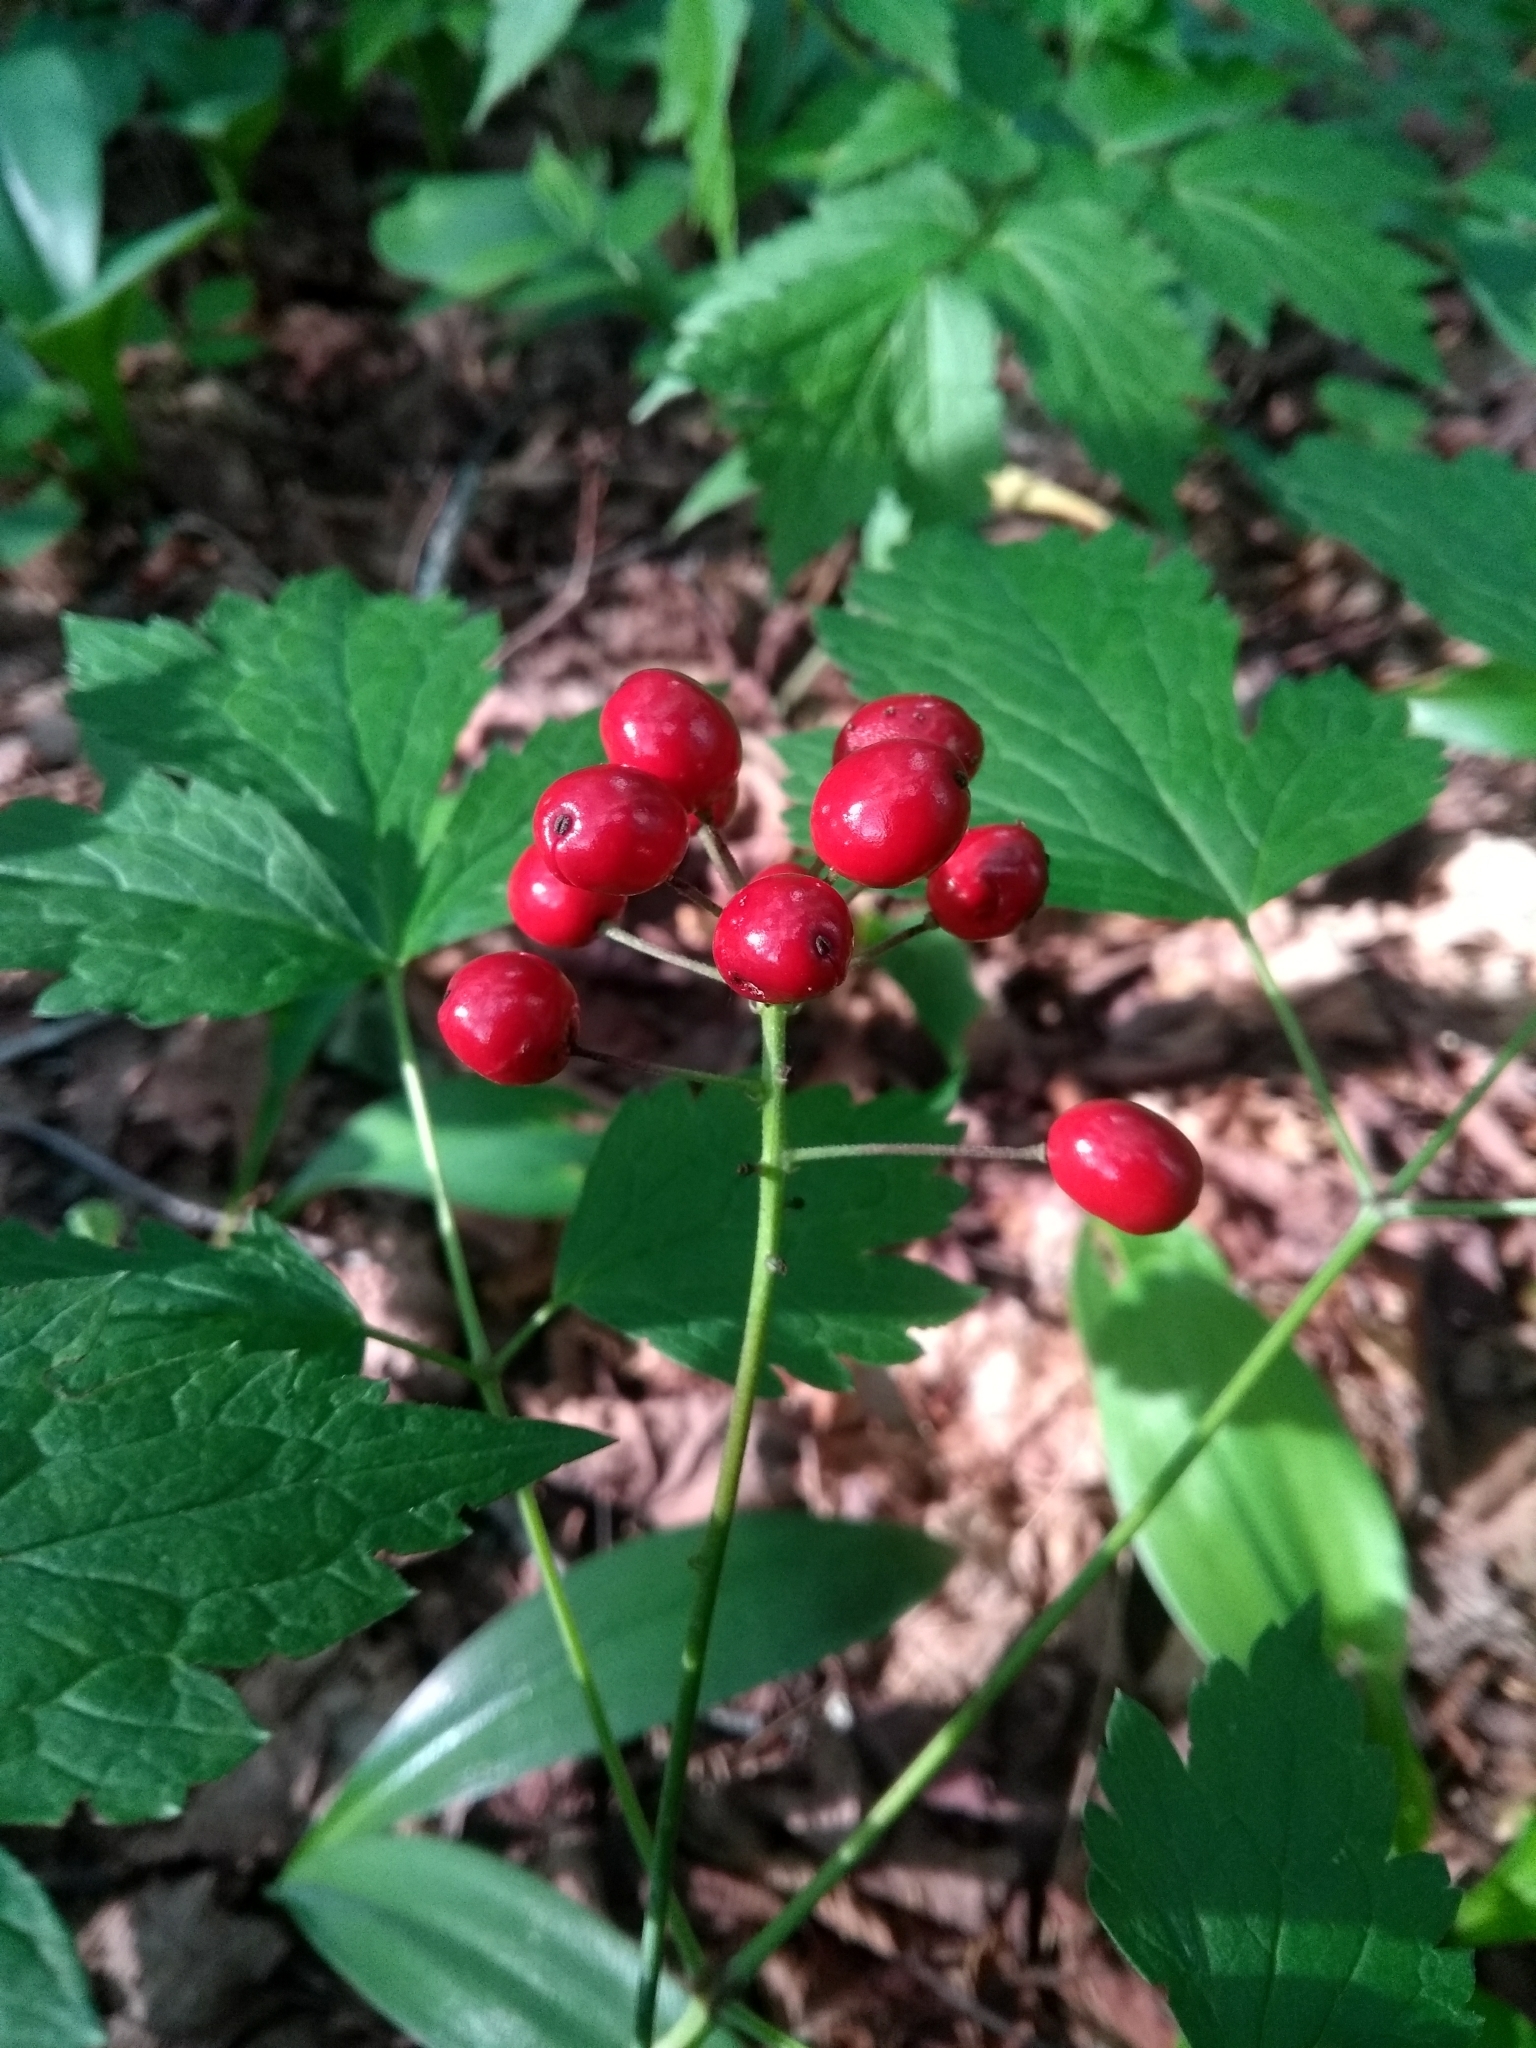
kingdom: Plantae
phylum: Tracheophyta
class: Magnoliopsida
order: Ranunculales
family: Ranunculaceae
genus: Actaea
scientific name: Actaea rubra
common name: Red baneberry
